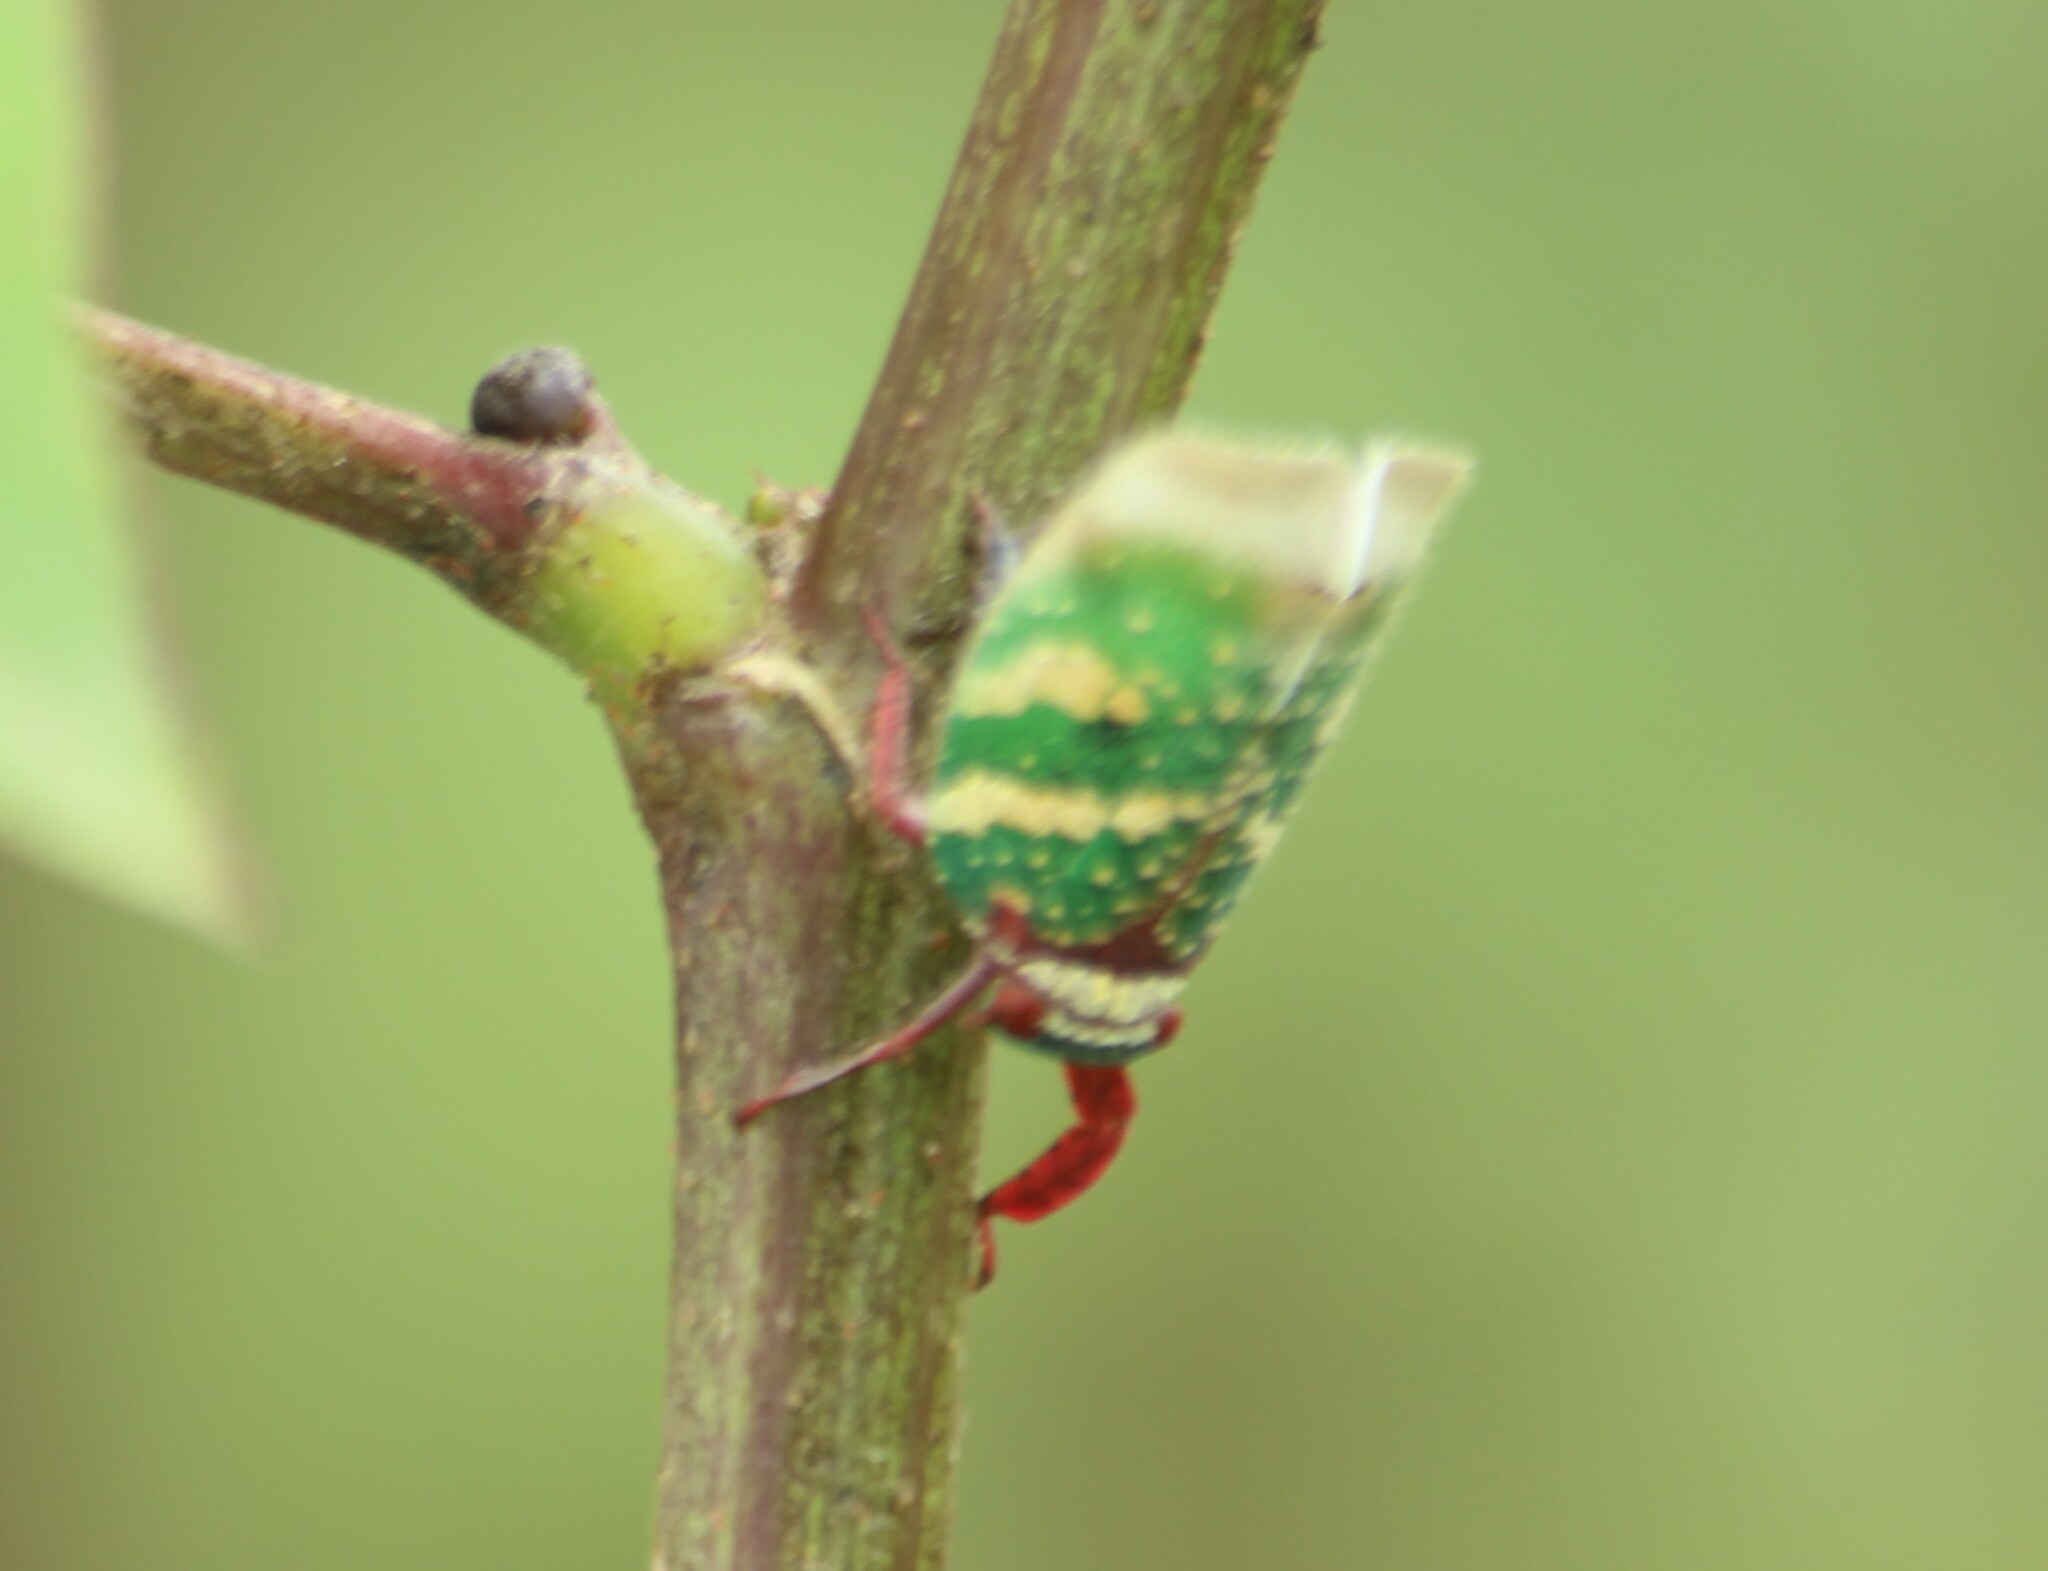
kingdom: Animalia
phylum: Arthropoda
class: Insecta
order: Hemiptera
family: Eurybrachidae
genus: Eurybrachys
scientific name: Eurybrachys tomentosa
